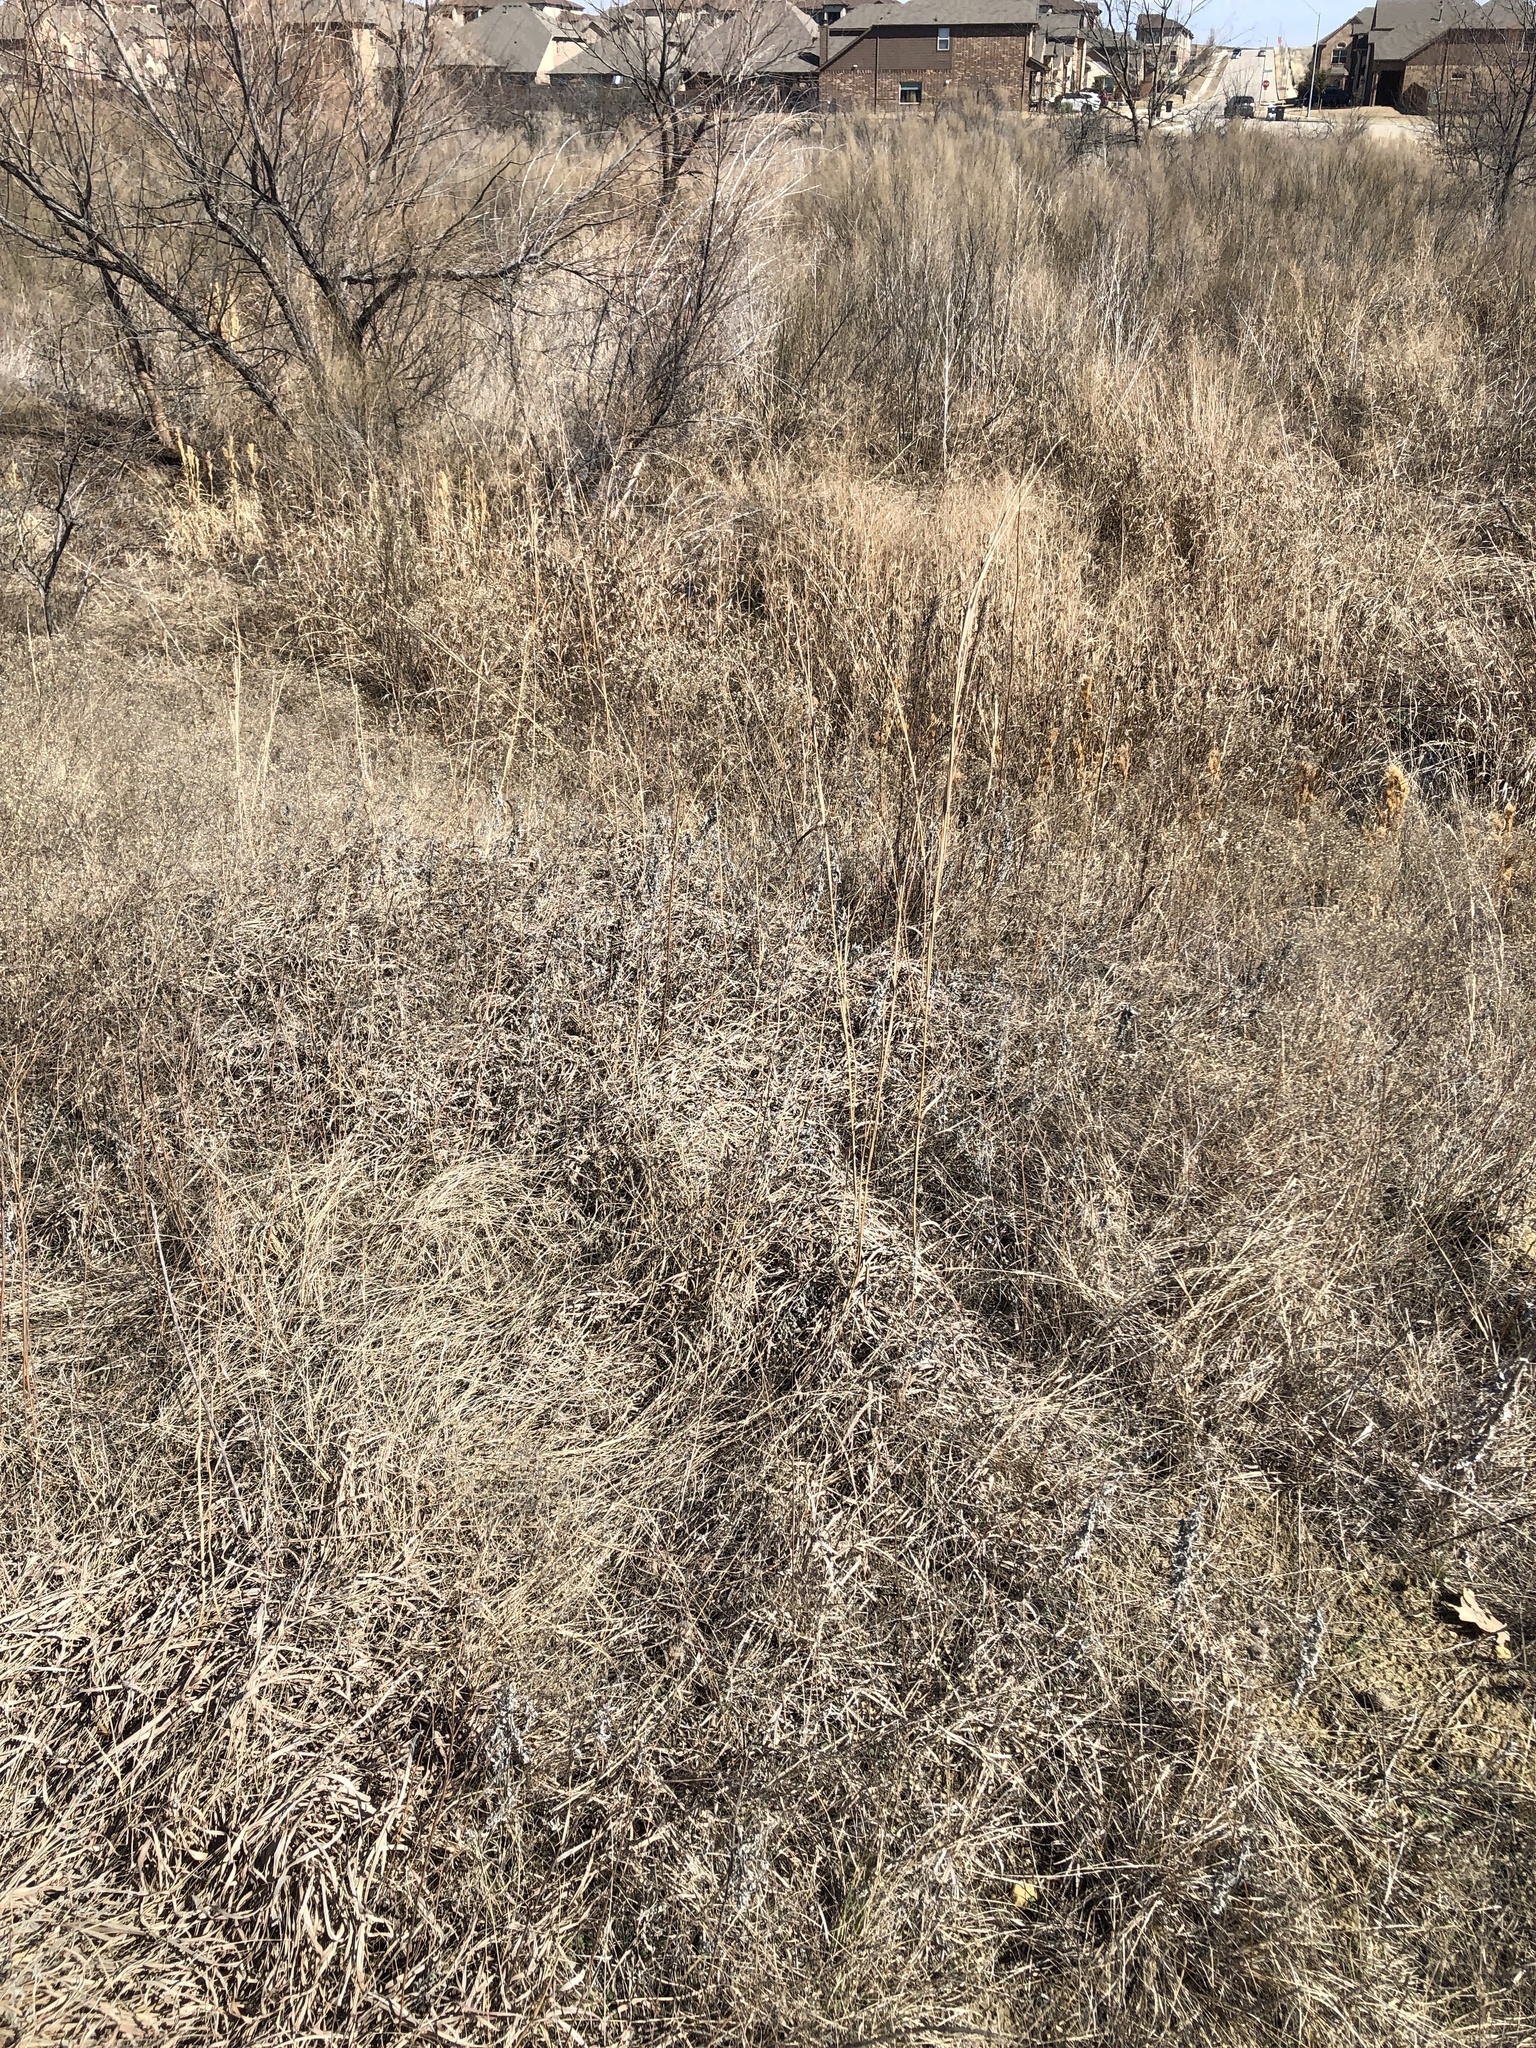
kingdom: Plantae
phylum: Tracheophyta
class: Liliopsida
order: Poales
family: Poaceae
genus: Andropogon
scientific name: Andropogon gerardi
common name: Big bluestem
